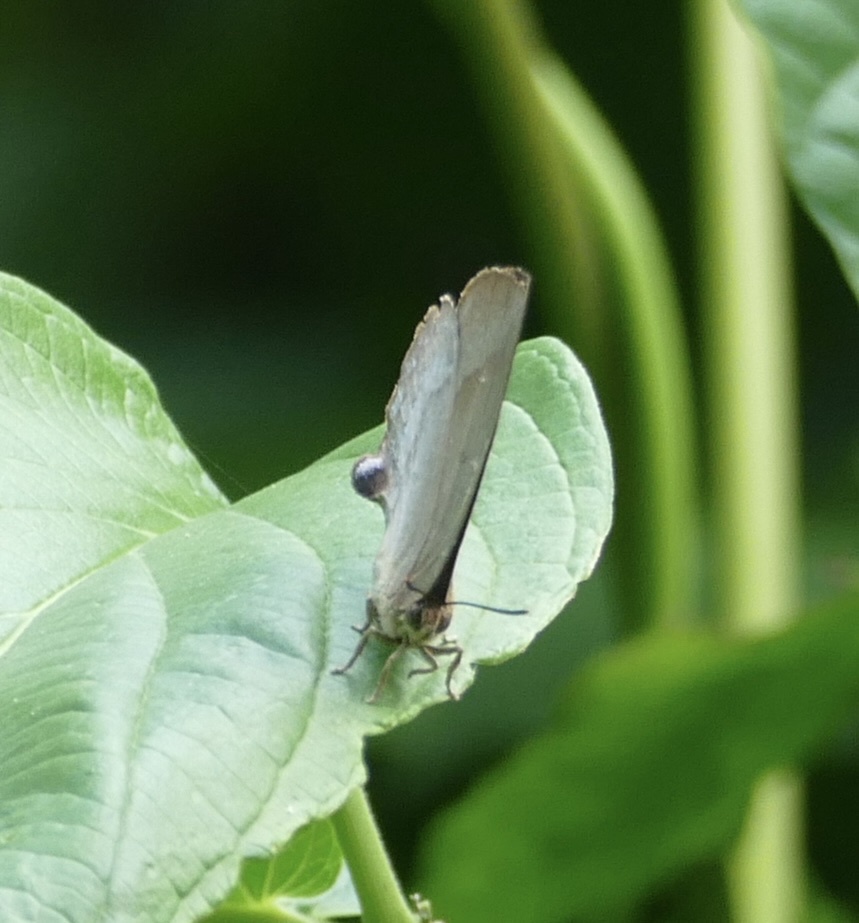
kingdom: Animalia
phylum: Arthropoda
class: Insecta
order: Lepidoptera
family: Lycaenidae
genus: Amblypodia
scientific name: Amblypodia annetta
